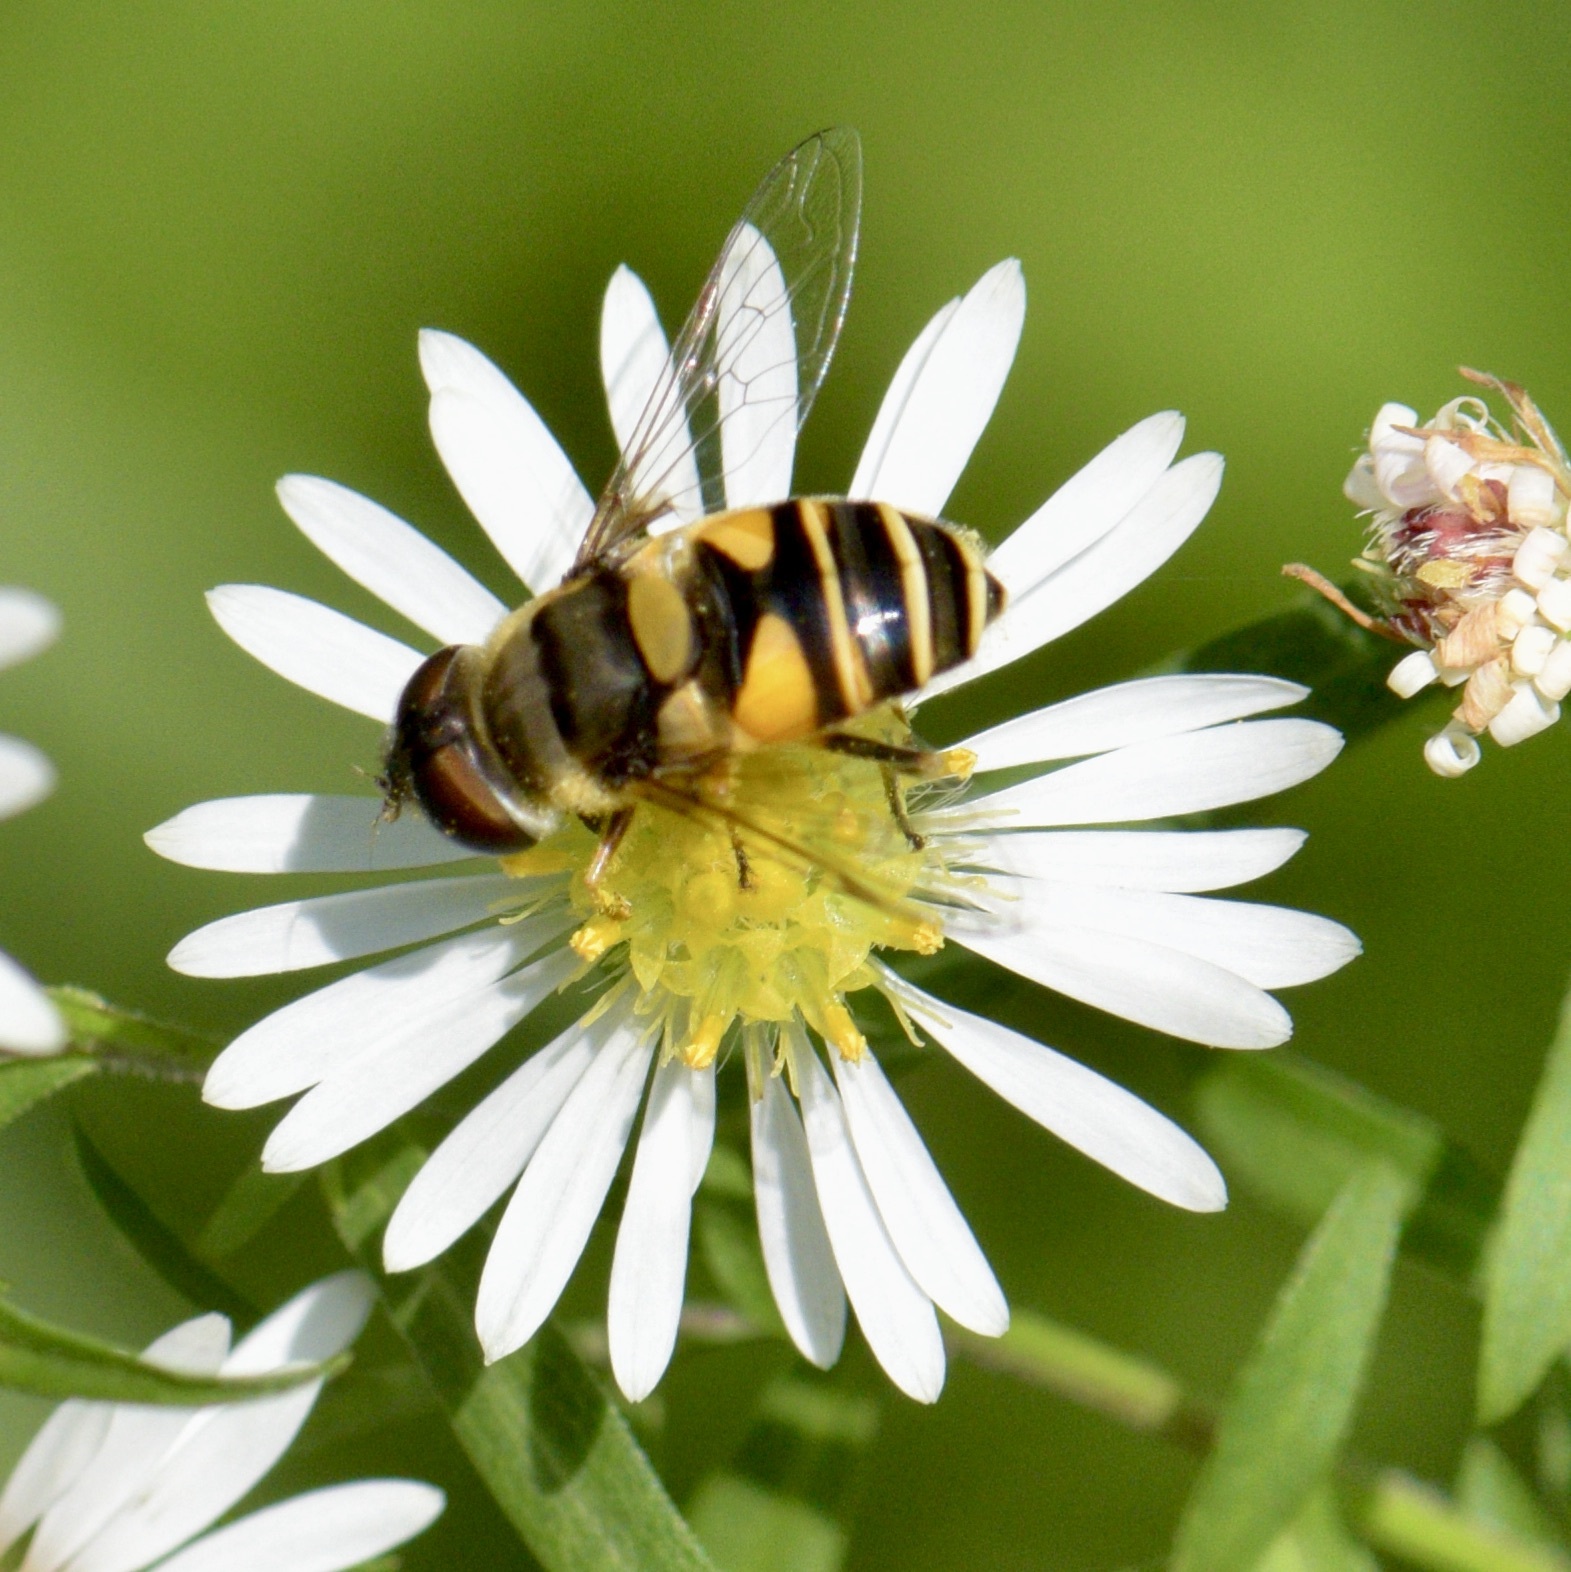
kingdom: Animalia
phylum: Arthropoda
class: Insecta
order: Diptera
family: Syrphidae
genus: Eristalis
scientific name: Eristalis transversa
